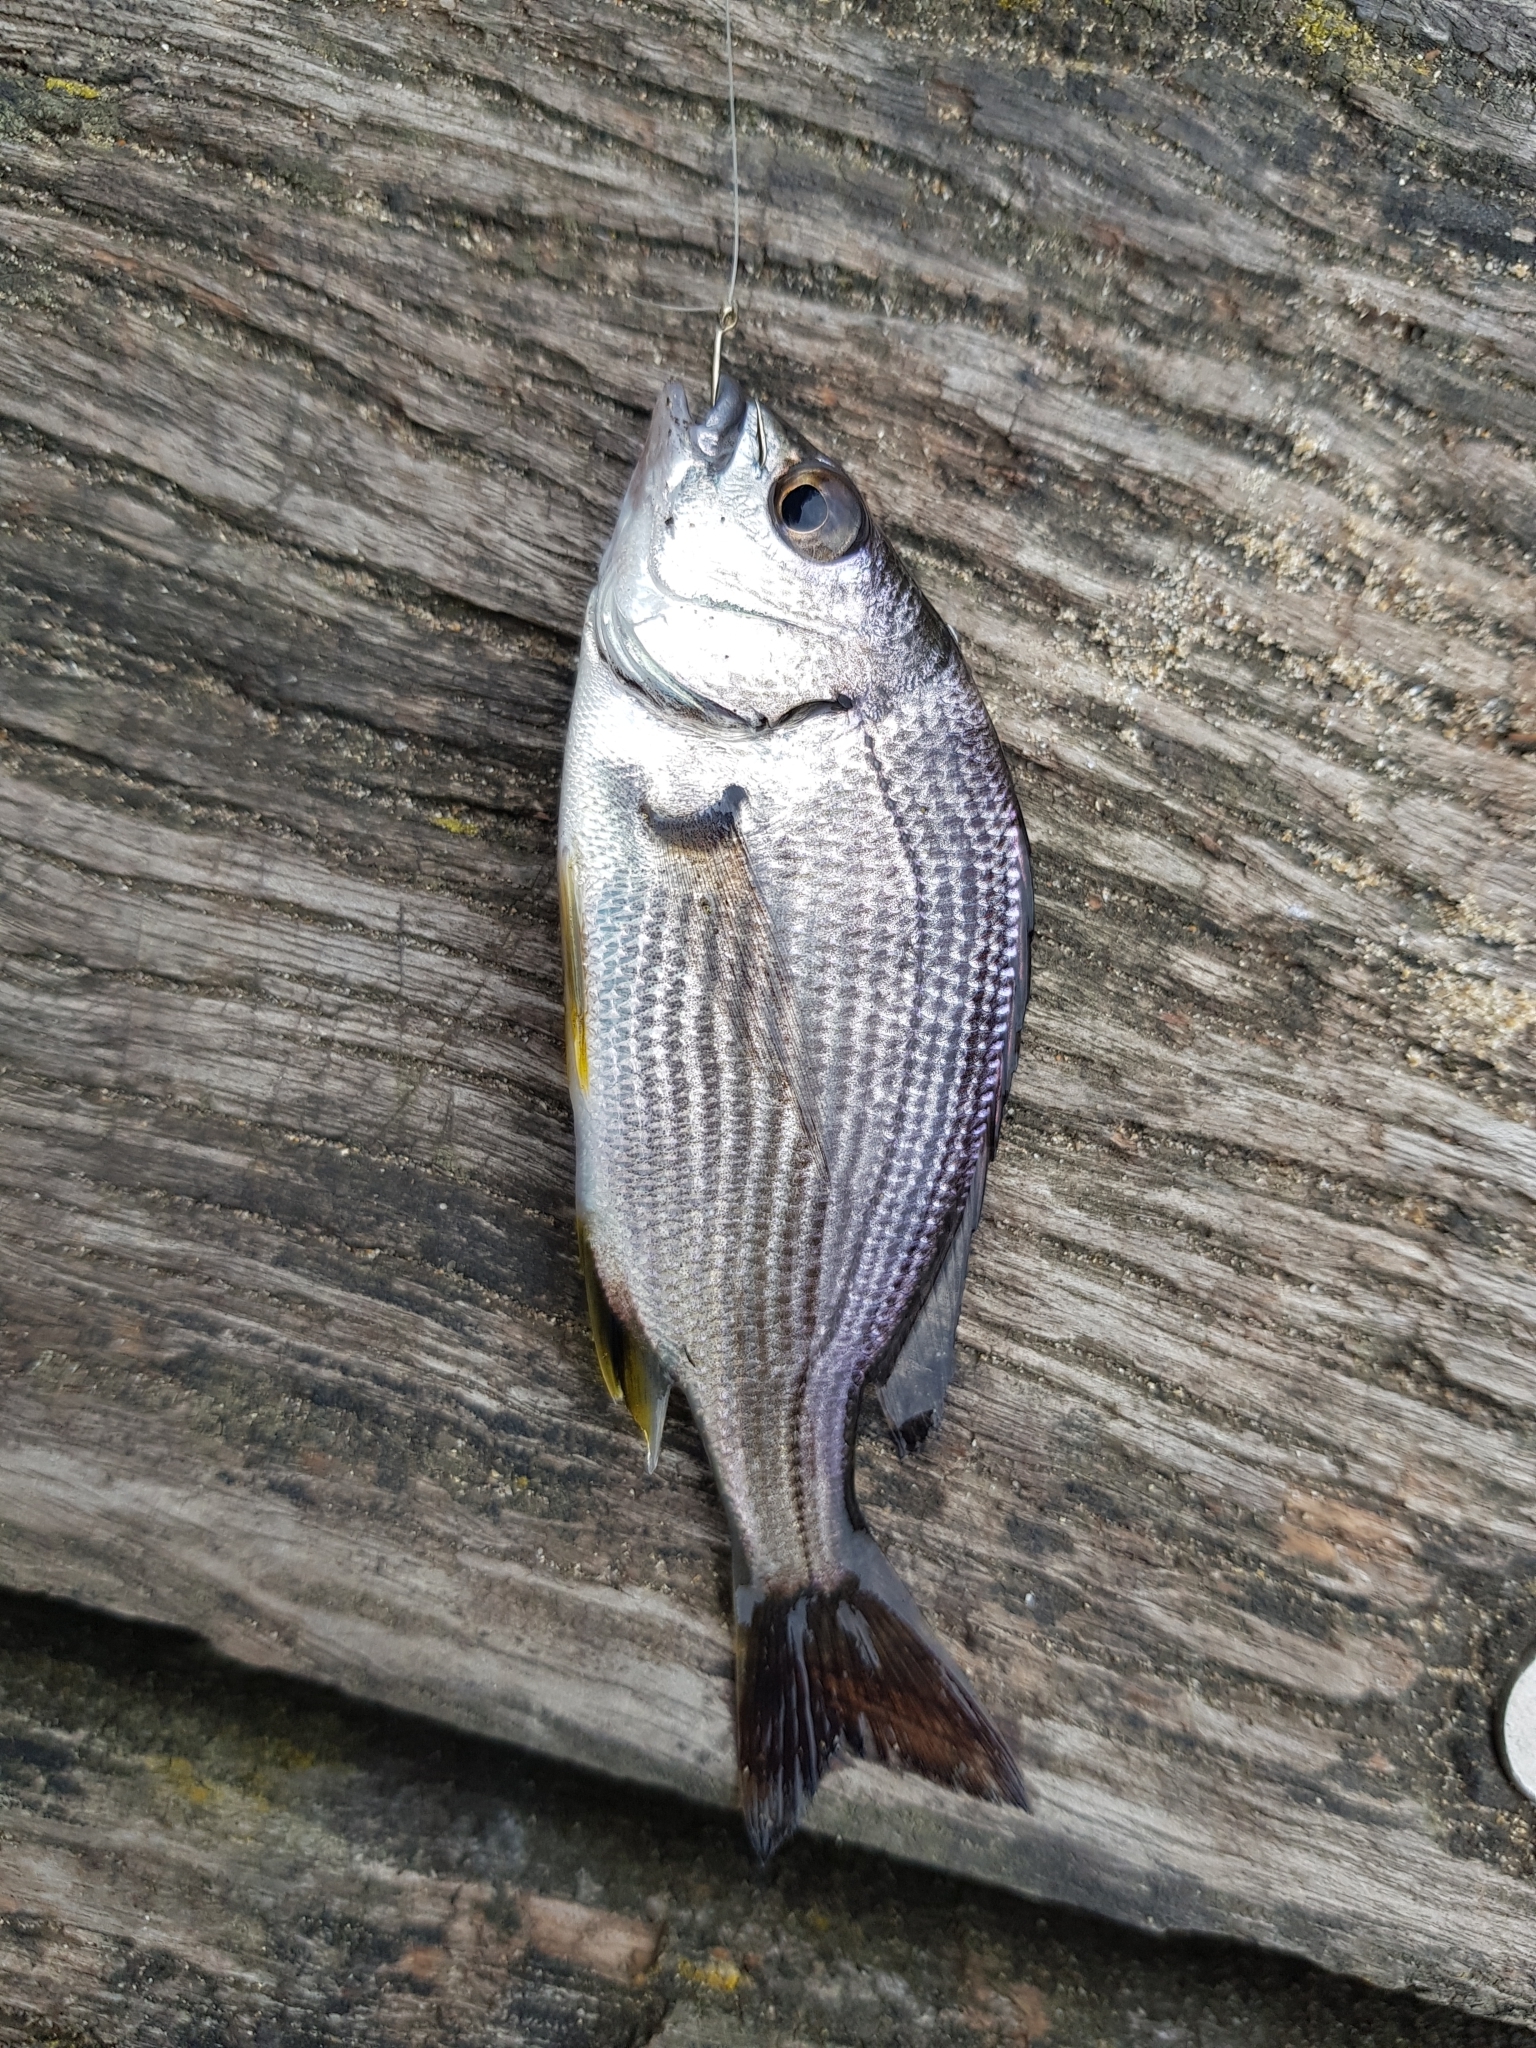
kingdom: Animalia
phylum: Chordata
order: Perciformes
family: Sparidae
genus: Acanthopagrus
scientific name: Acanthopagrus butcheri
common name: Black bream
